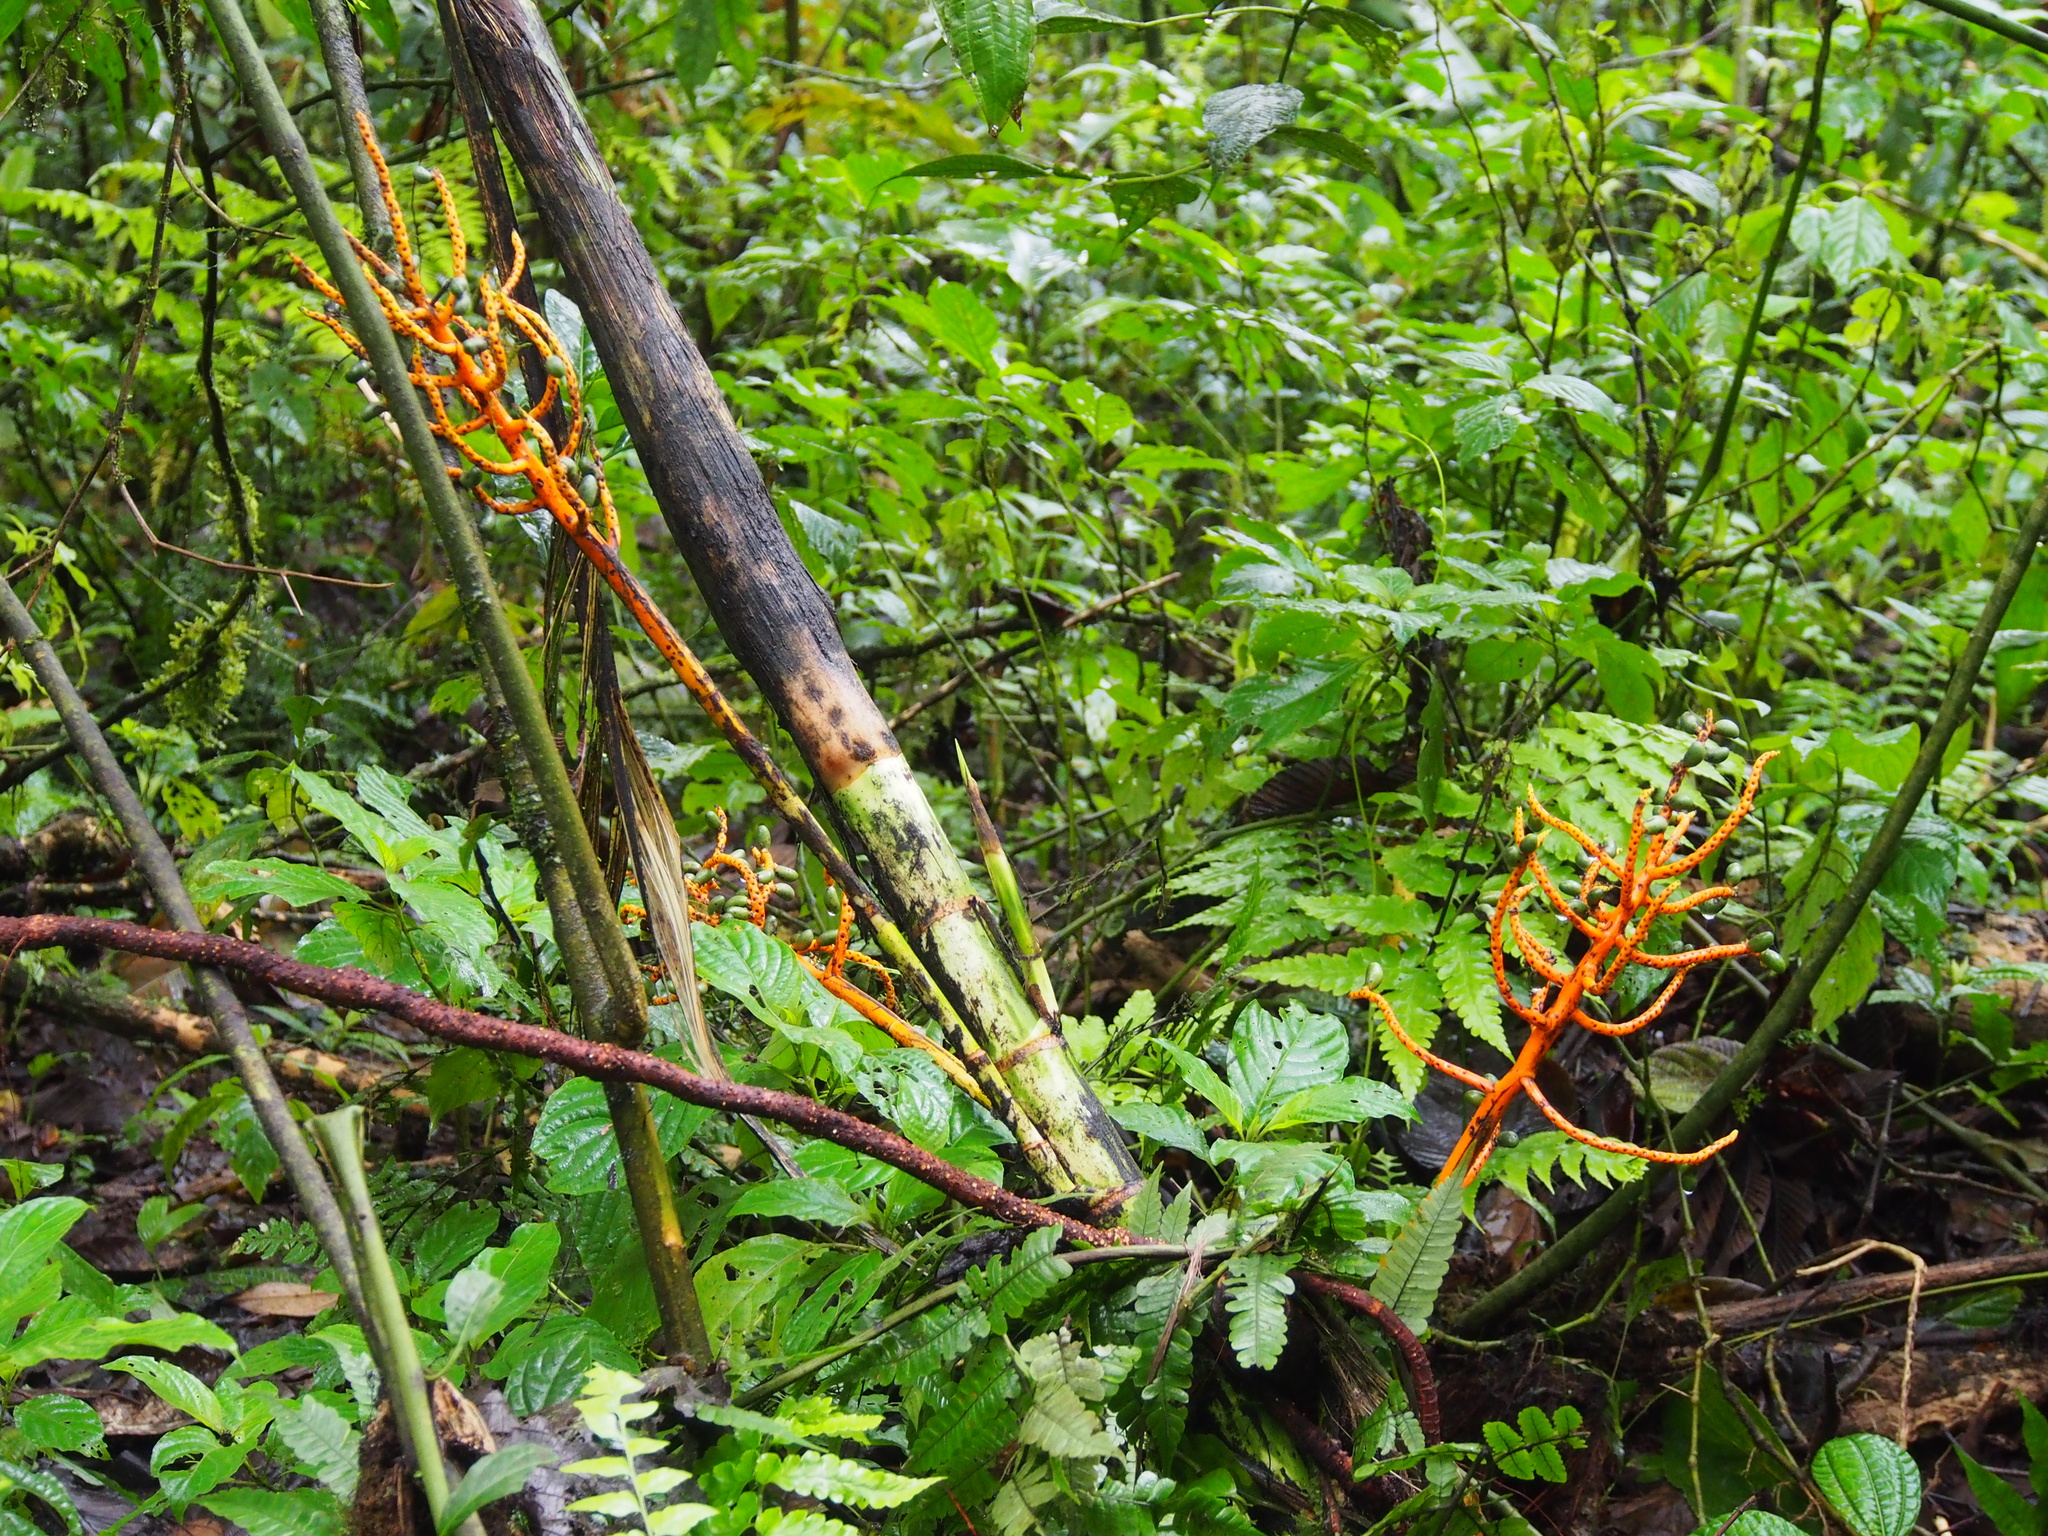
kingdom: Plantae
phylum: Tracheophyta
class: Liliopsida
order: Arecales
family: Arecaceae
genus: Chamaedorea
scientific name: Chamaedorea tepejilote
